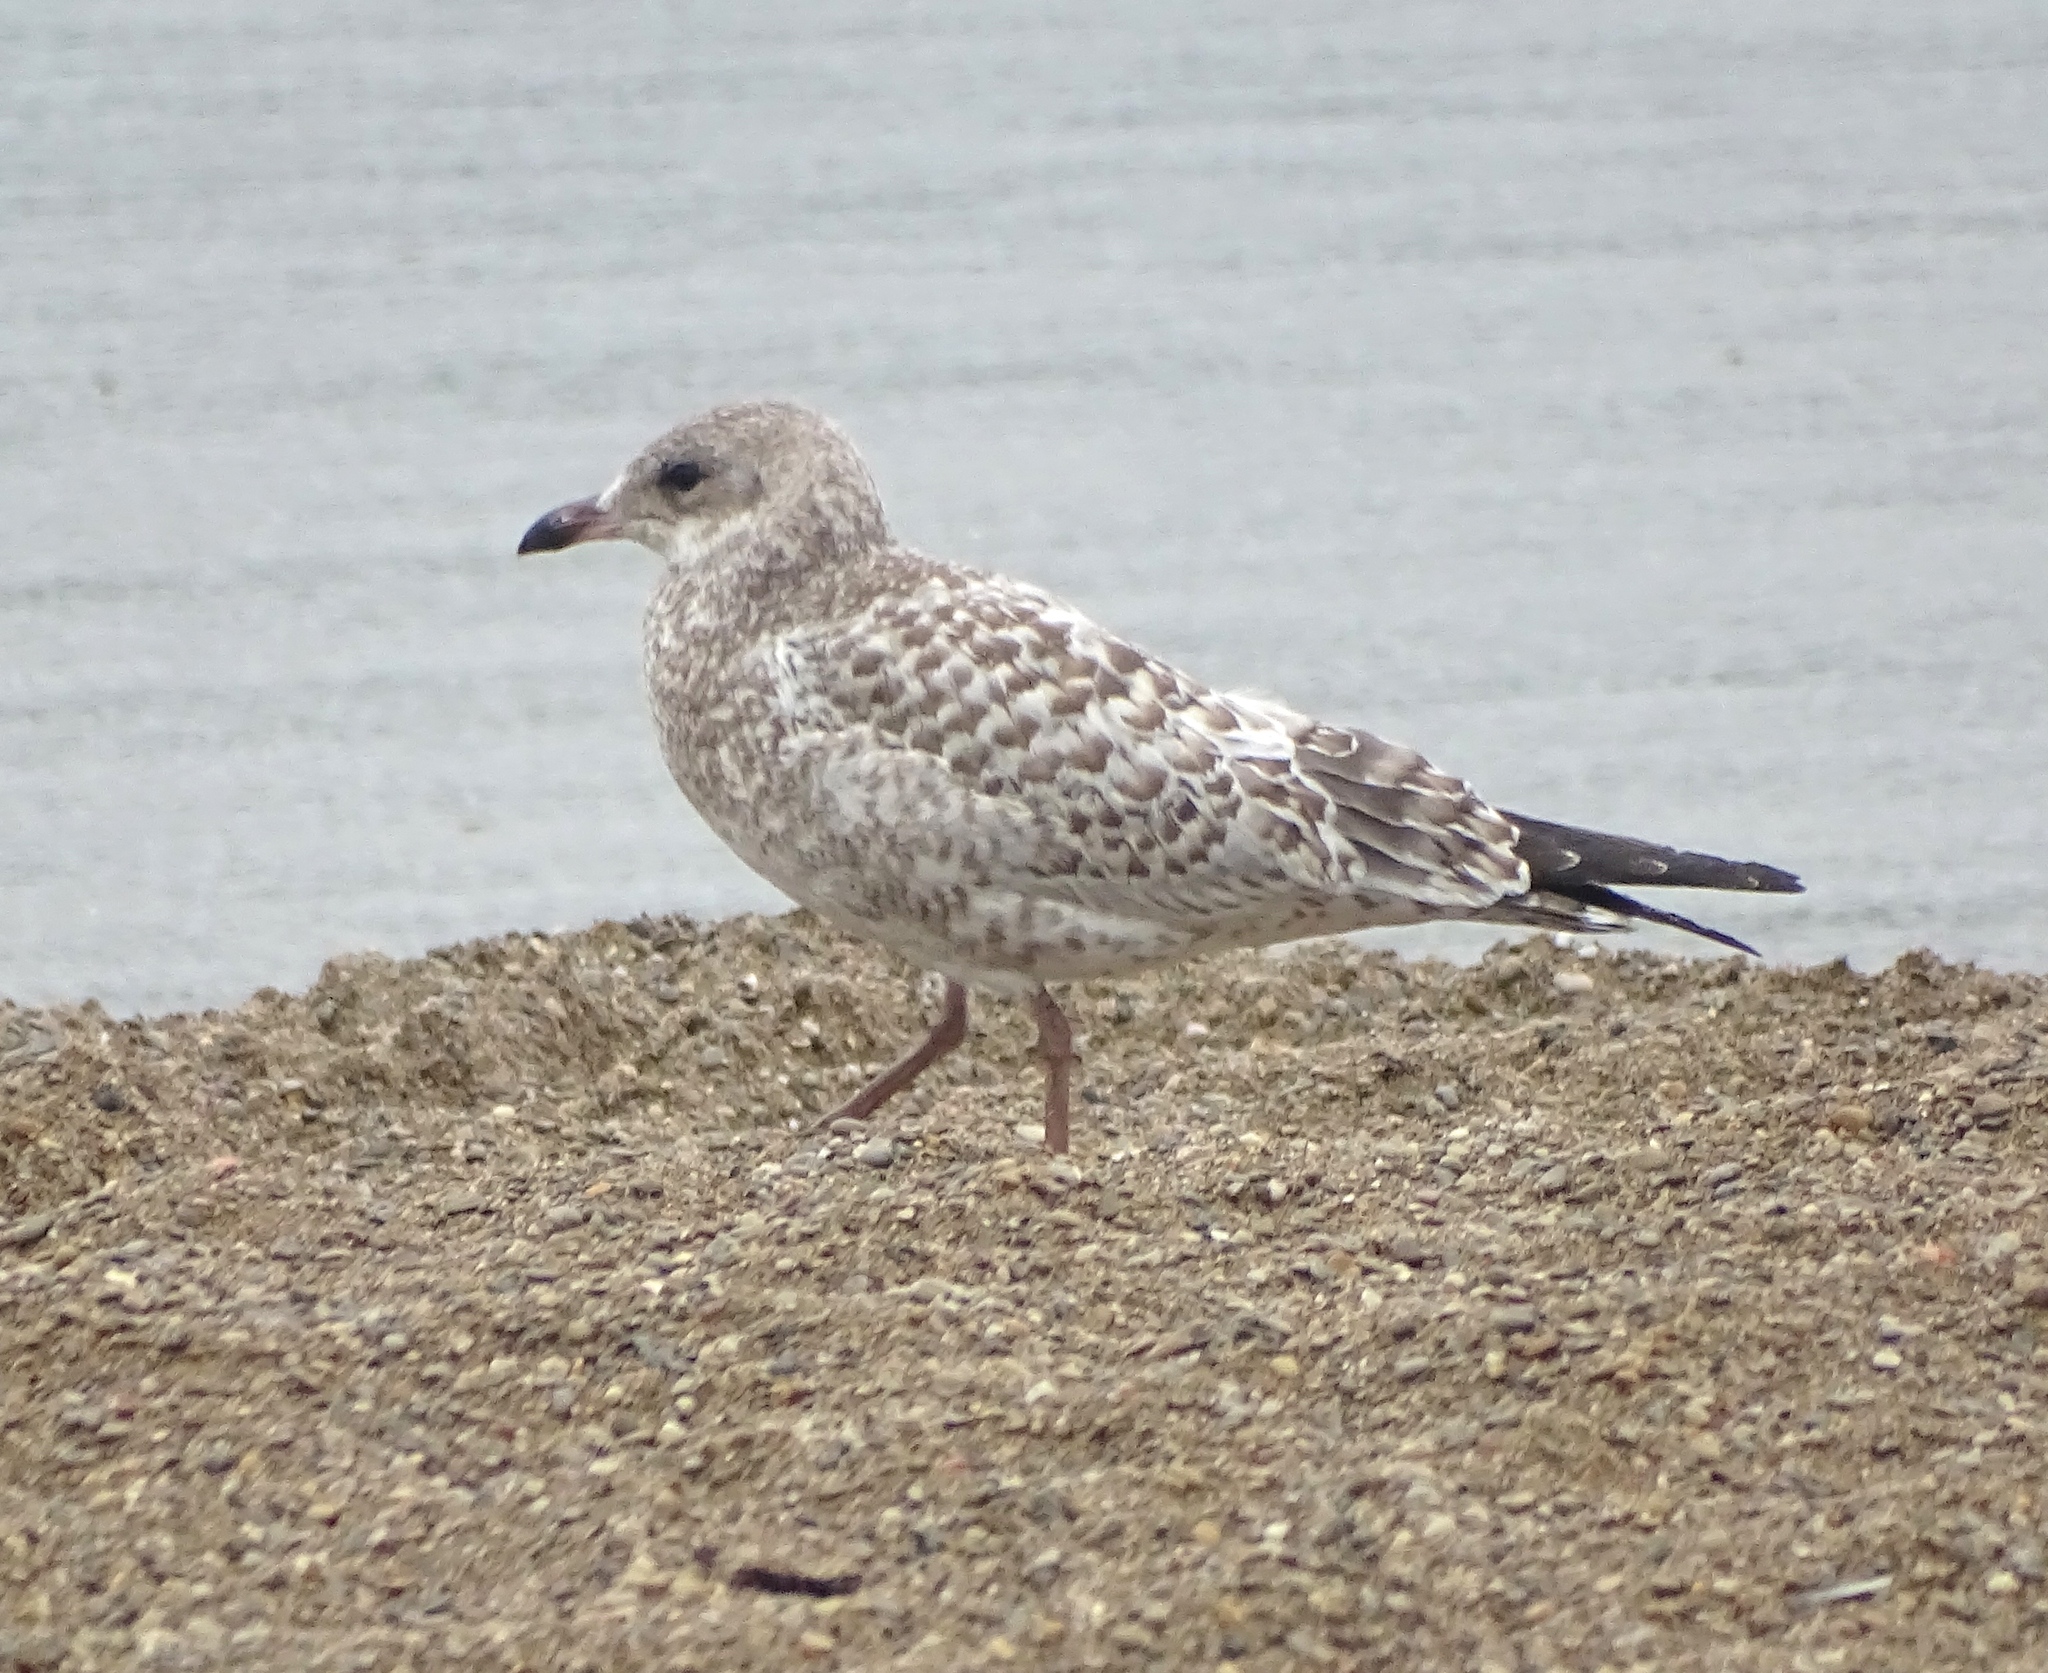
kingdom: Animalia
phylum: Chordata
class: Aves
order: Charadriiformes
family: Laridae
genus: Larus
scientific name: Larus delawarensis
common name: Ring-billed gull
